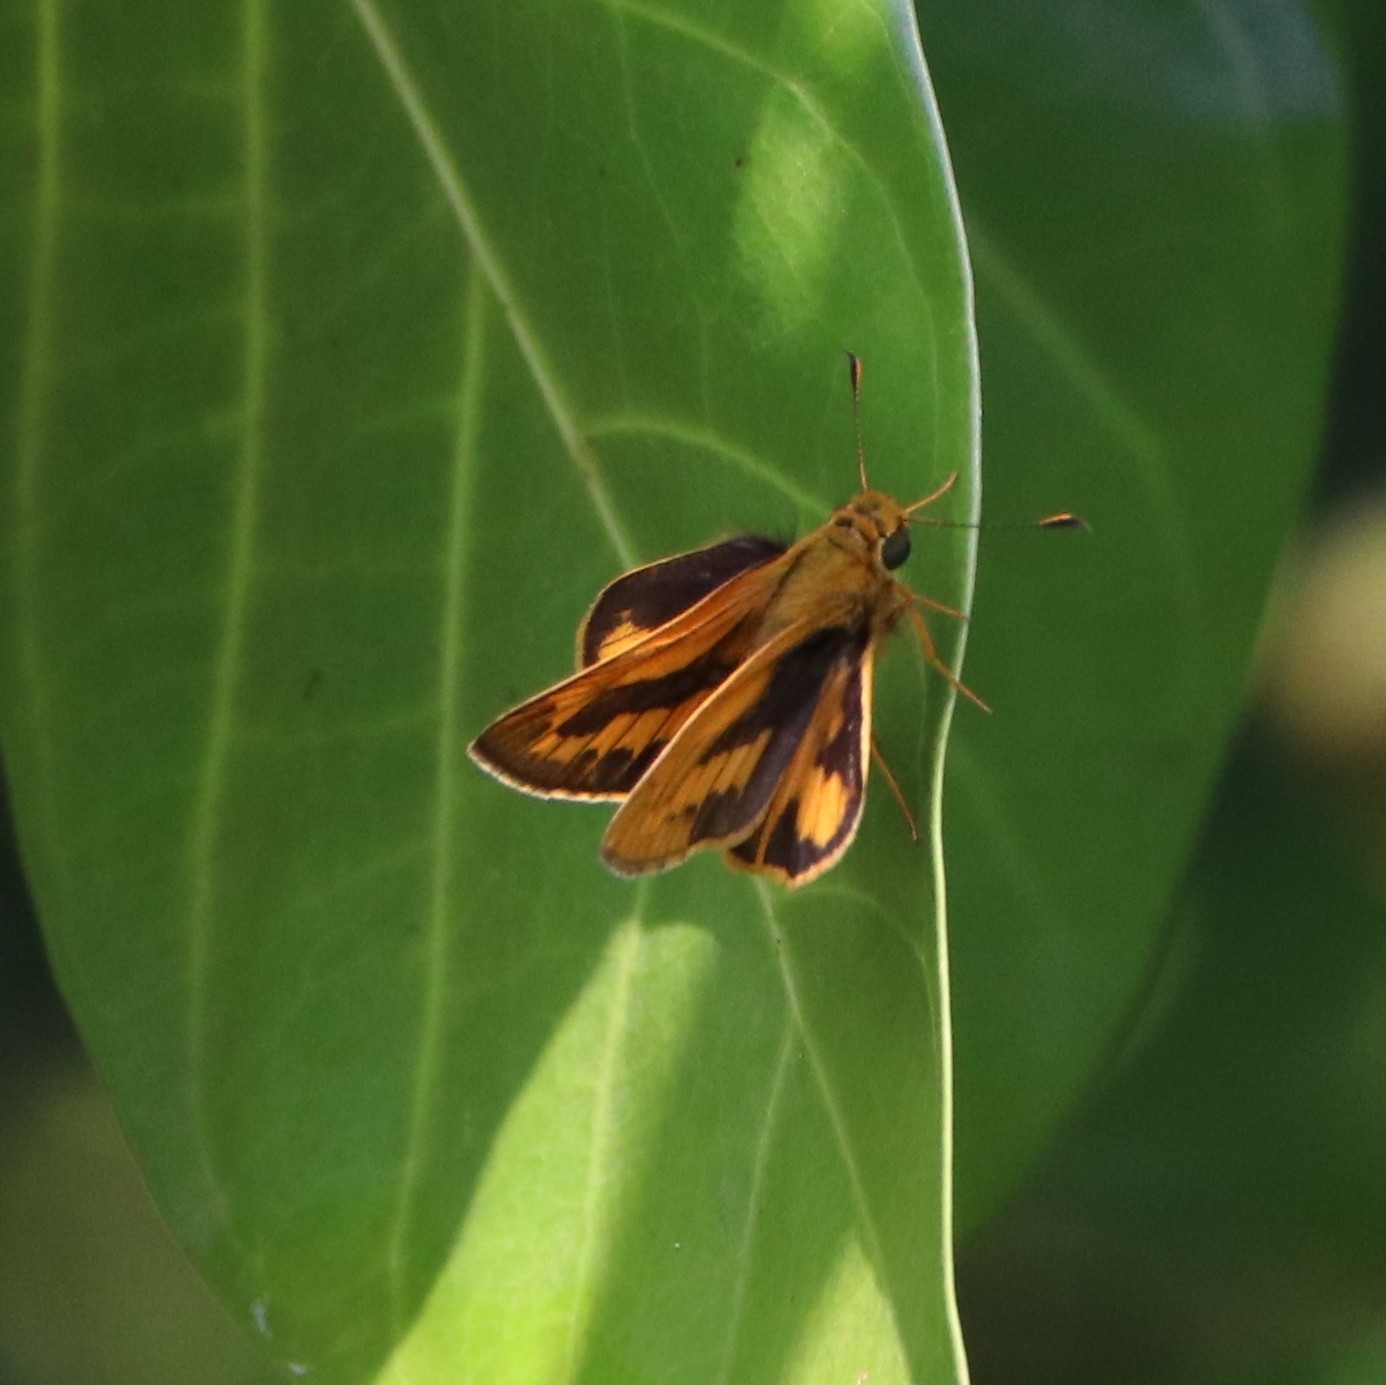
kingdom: Animalia
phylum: Arthropoda
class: Insecta
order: Lepidoptera
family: Hesperiidae
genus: Telicota
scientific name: Telicota bambusae
